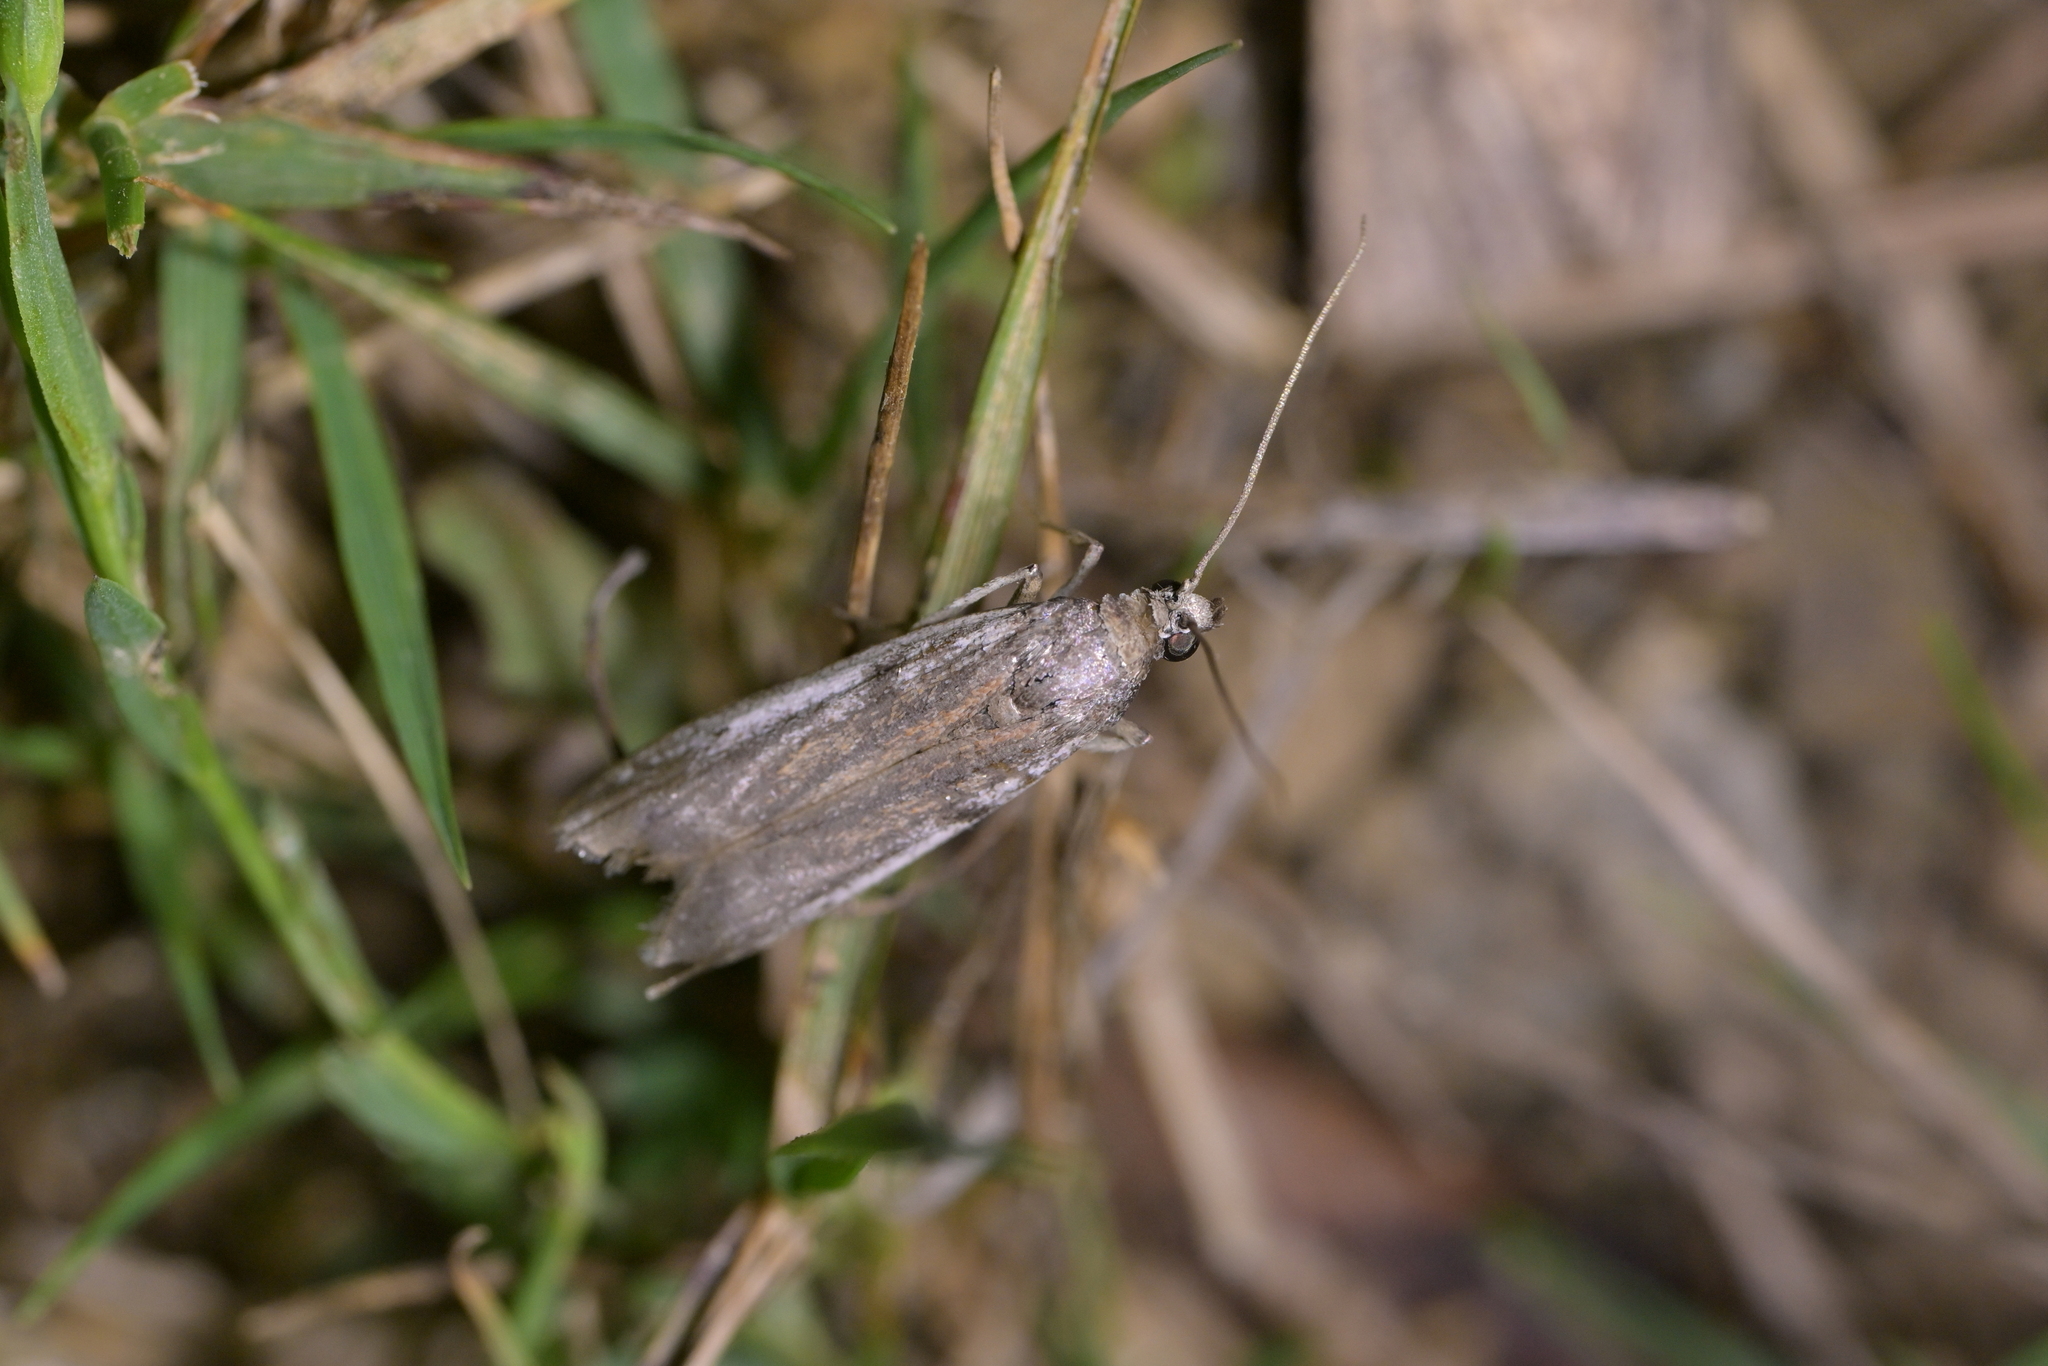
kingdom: Animalia
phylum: Arthropoda
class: Insecta
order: Lepidoptera
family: Pyralidae
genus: Patagoniodes
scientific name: Patagoniodes farinaria
